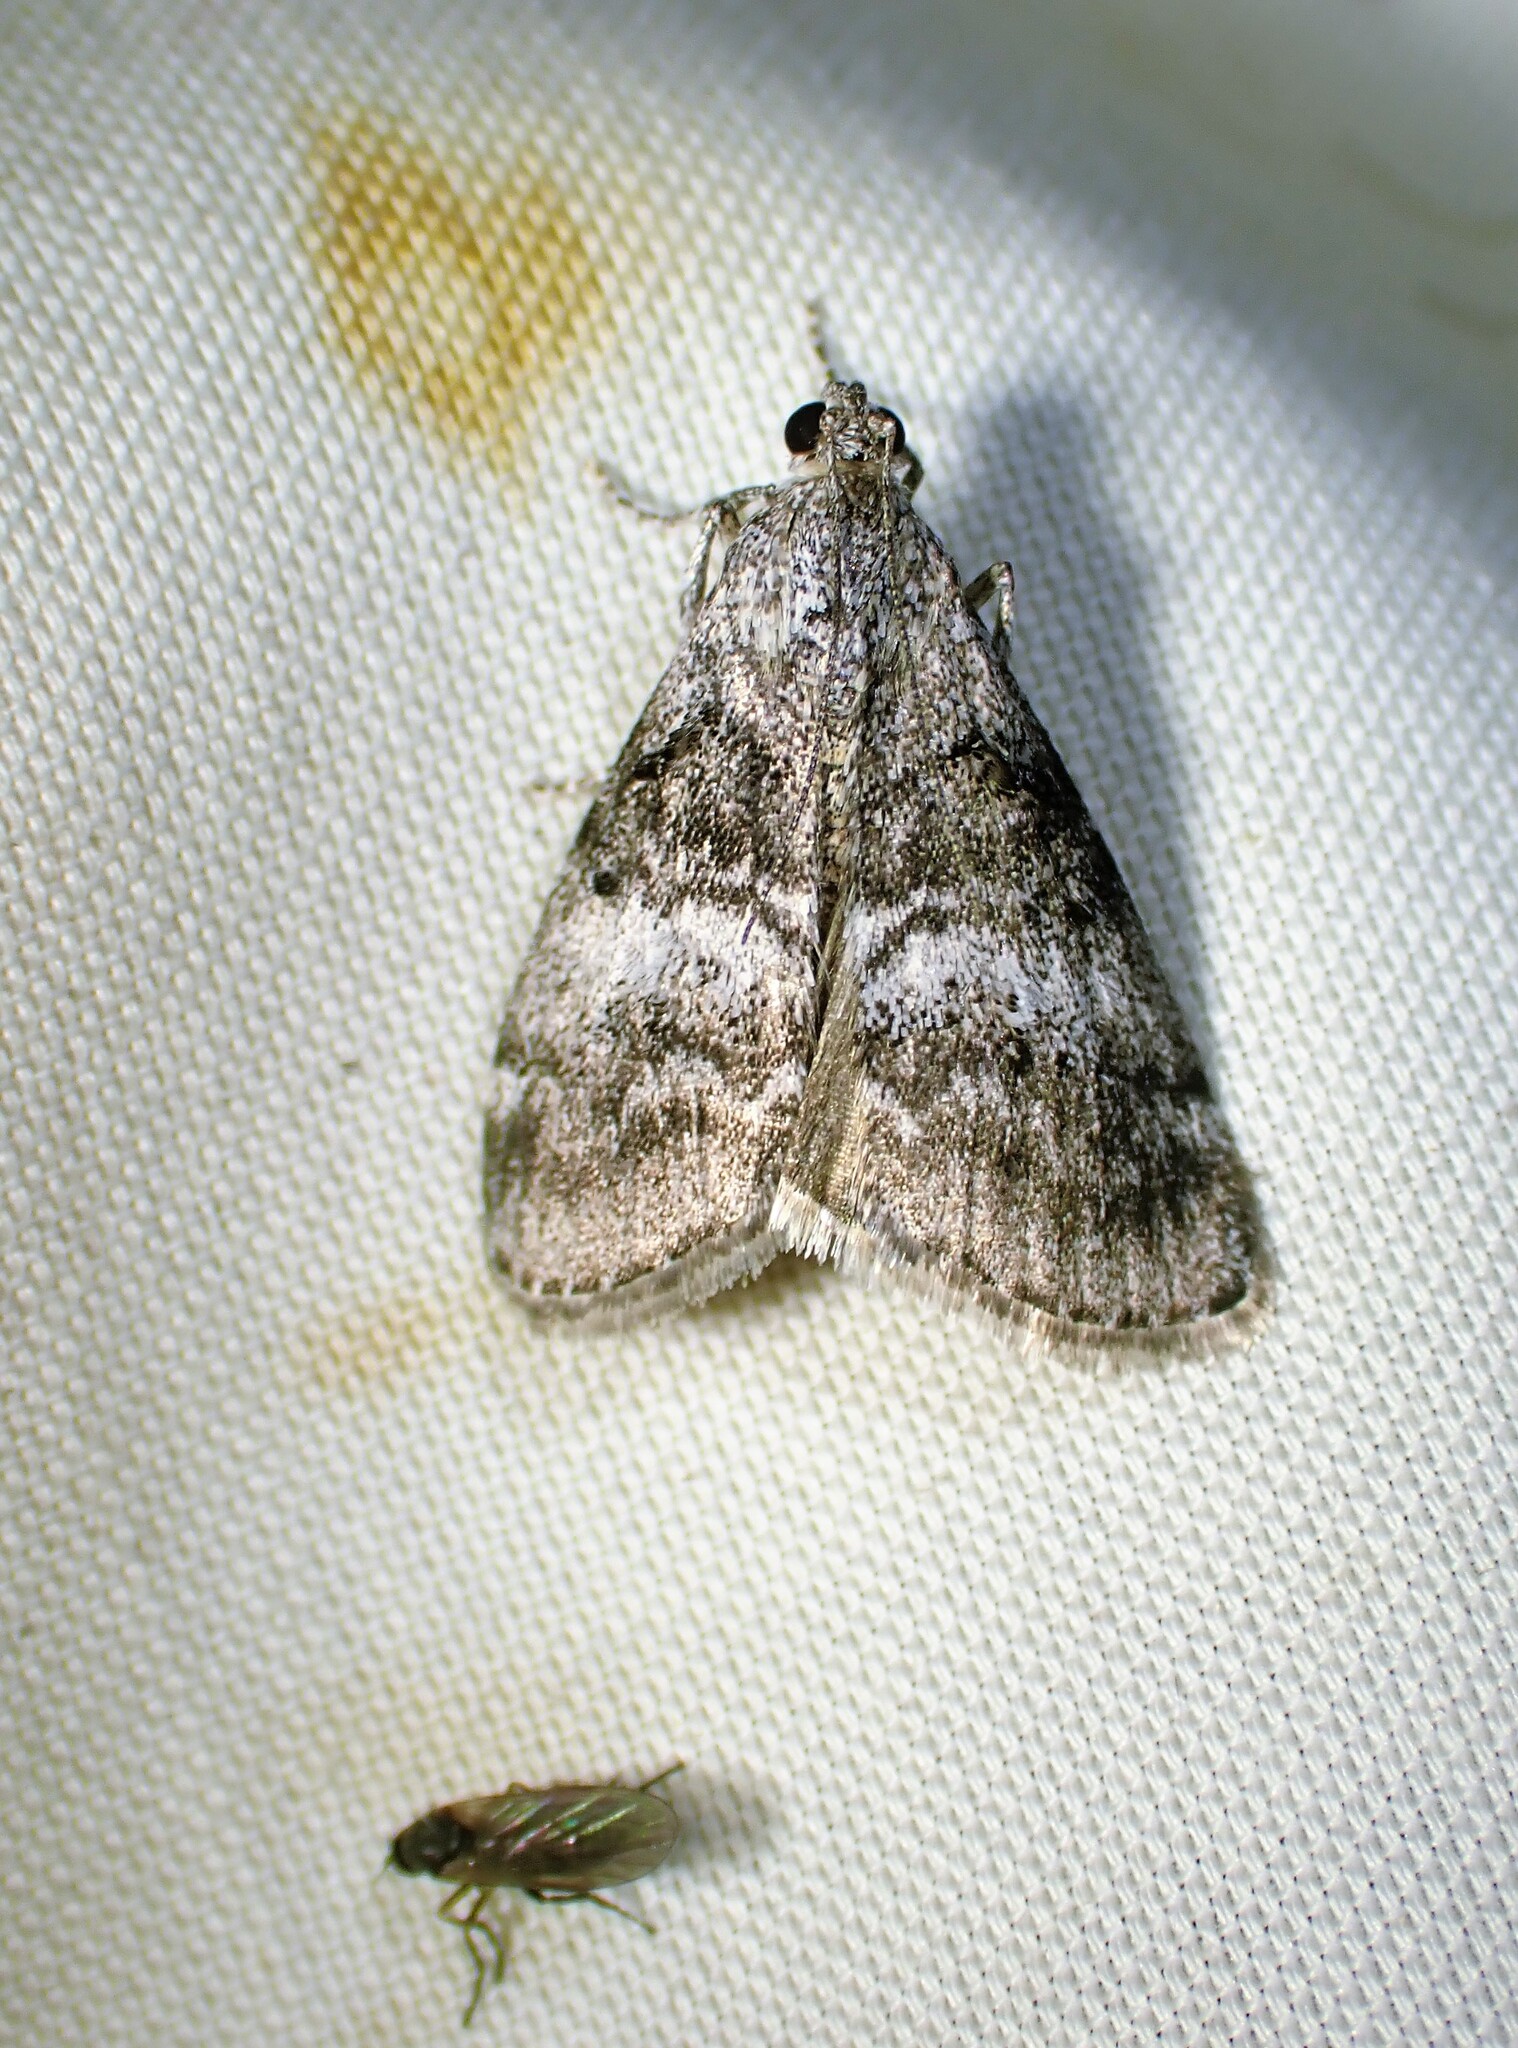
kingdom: Animalia
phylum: Arthropoda
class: Insecta
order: Lepidoptera
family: Pyralidae
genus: Pococera
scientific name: Pococera asperatella
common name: Maple webworm moth
